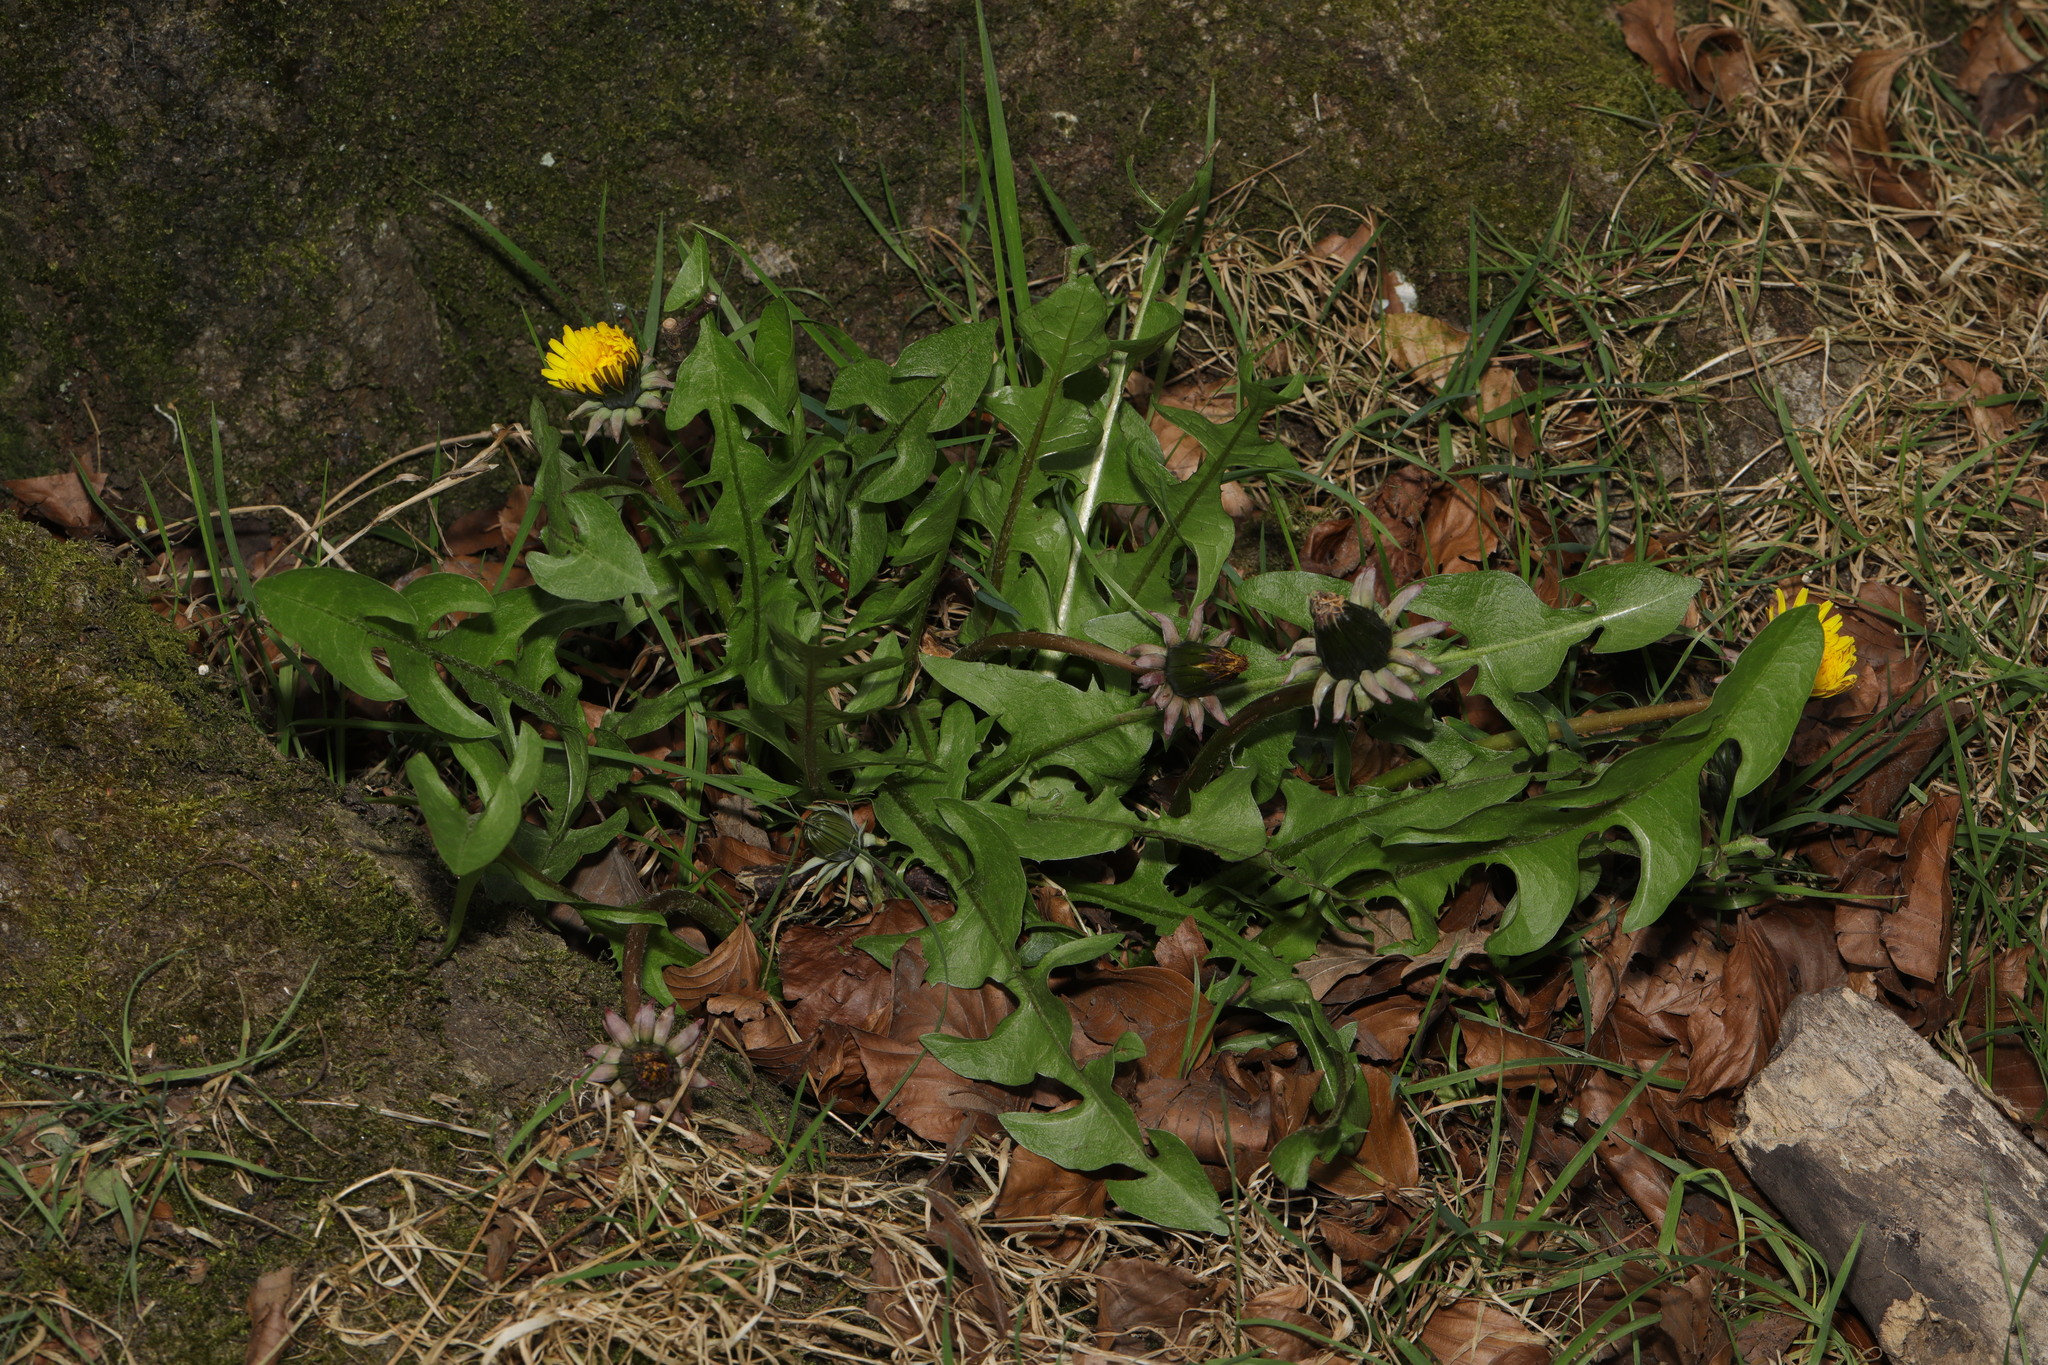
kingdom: Plantae
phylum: Tracheophyta
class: Magnoliopsida
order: Asterales
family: Asteraceae
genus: Taraxacum
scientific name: Taraxacum officinale
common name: Common dandelion
